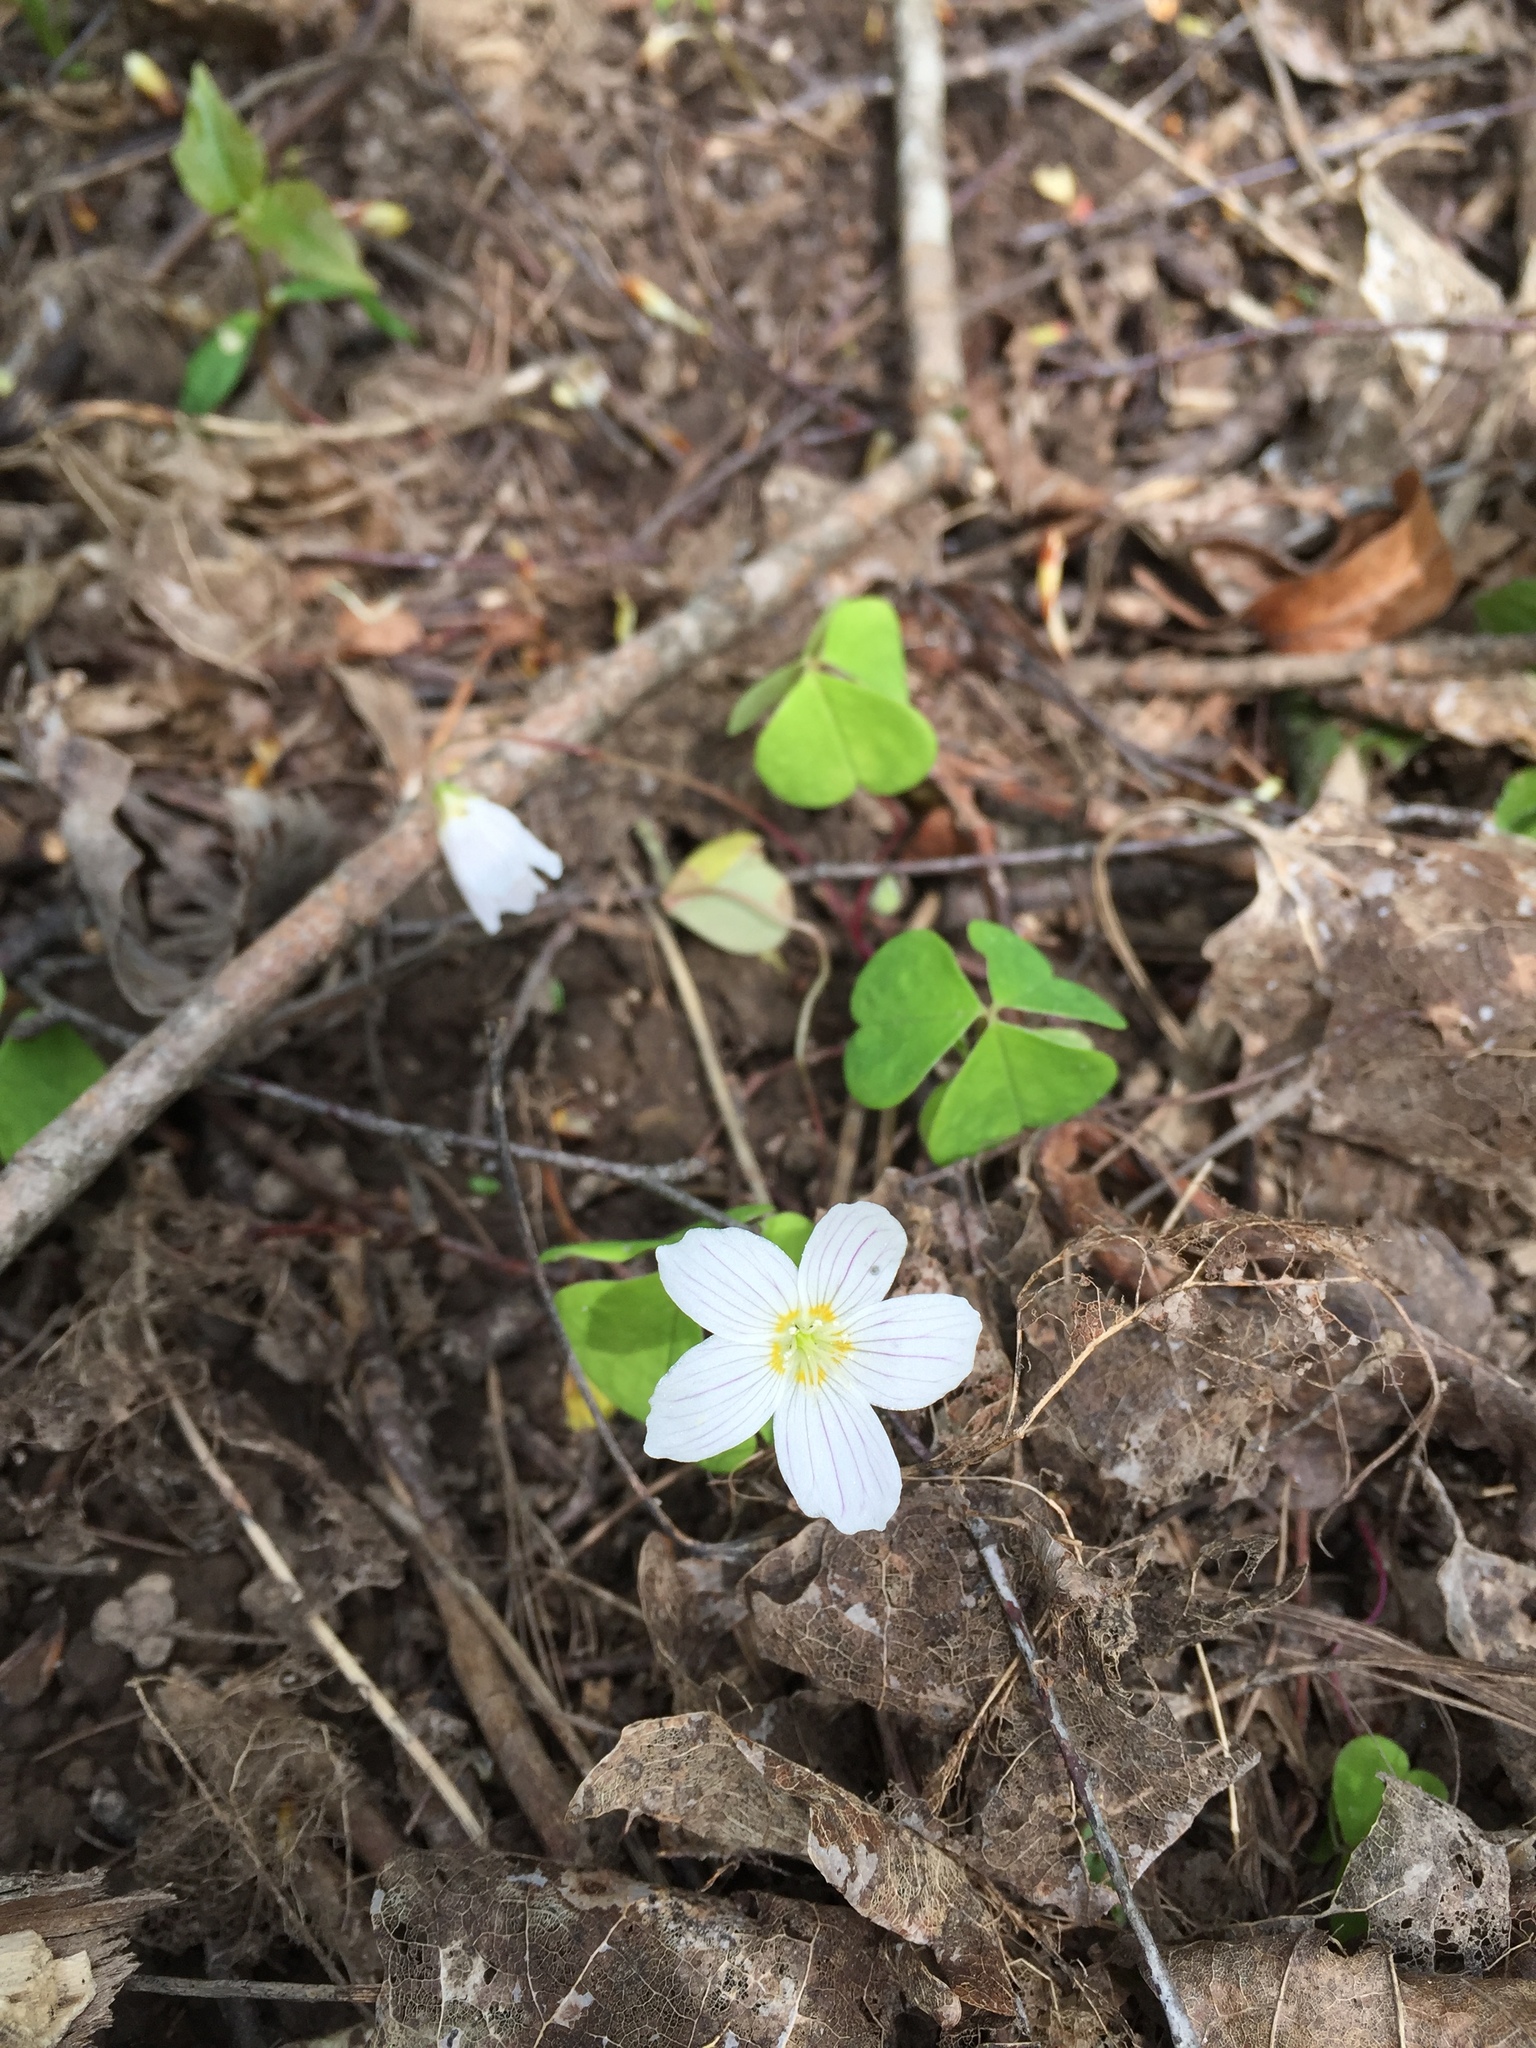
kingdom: Plantae
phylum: Tracheophyta
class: Magnoliopsida
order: Oxalidales
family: Oxalidaceae
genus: Oxalis
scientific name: Oxalis acetosella
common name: Wood-sorrel
